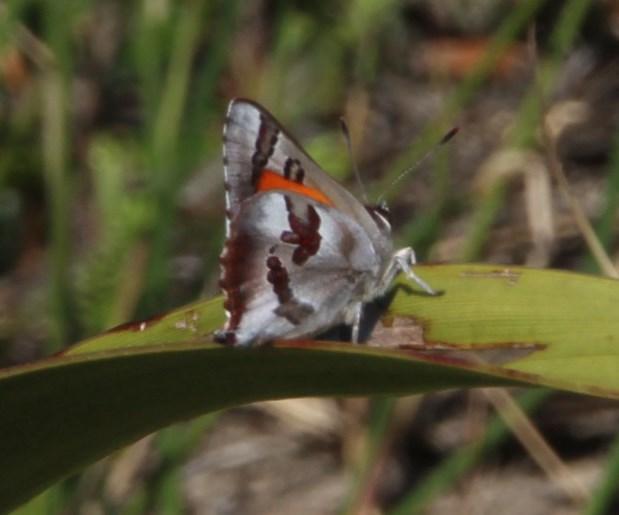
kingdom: Animalia
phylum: Arthropoda
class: Insecta
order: Lepidoptera
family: Lycaenidae
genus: Capys
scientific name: Capys alpheus
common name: Orange-banded protea butterfly
